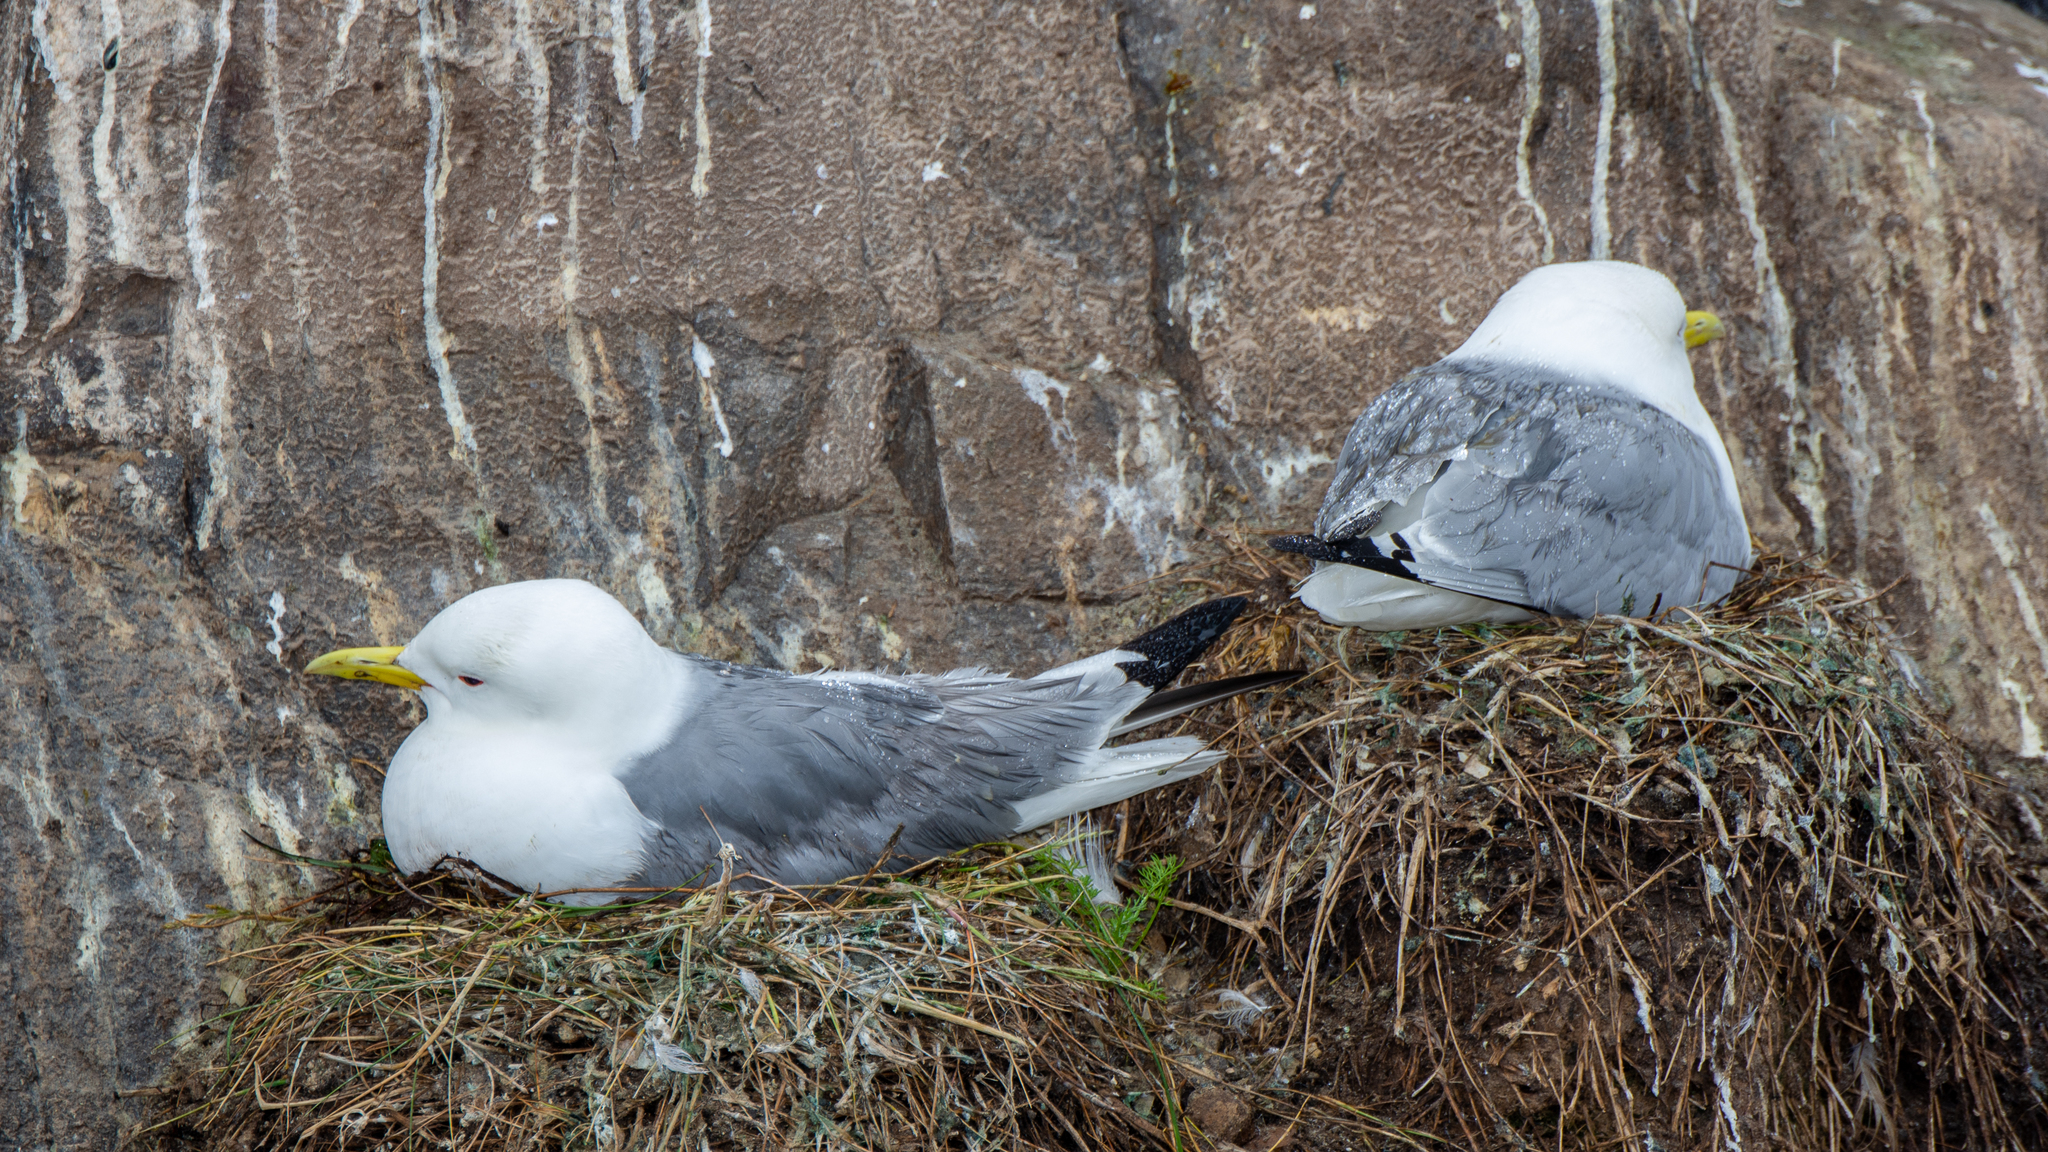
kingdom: Animalia
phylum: Chordata
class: Aves
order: Charadriiformes
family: Laridae
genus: Rissa
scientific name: Rissa tridactyla
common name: Black-legged kittiwake
